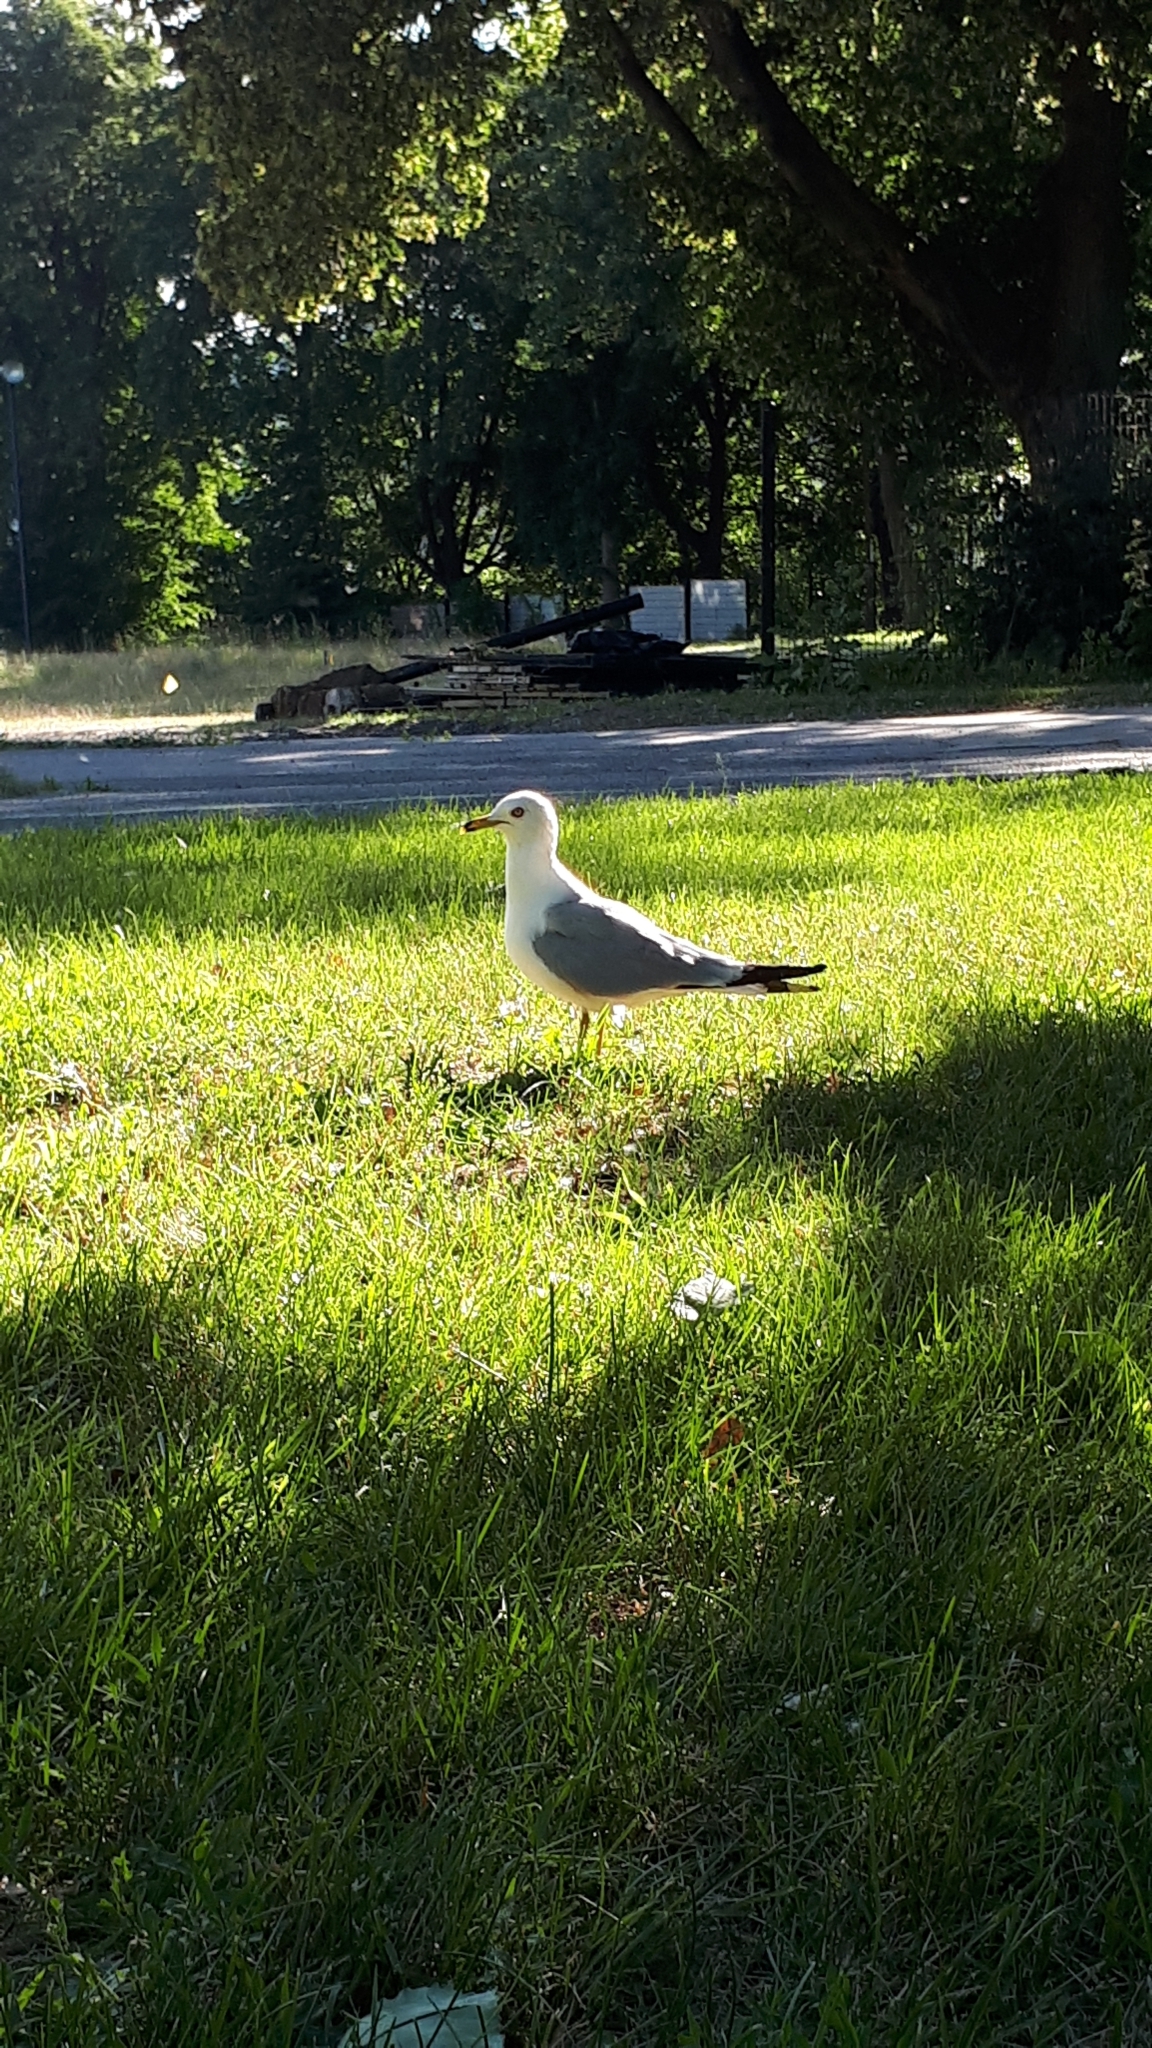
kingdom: Animalia
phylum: Chordata
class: Aves
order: Charadriiformes
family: Laridae
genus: Larus
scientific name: Larus delawarensis
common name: Ring-billed gull
